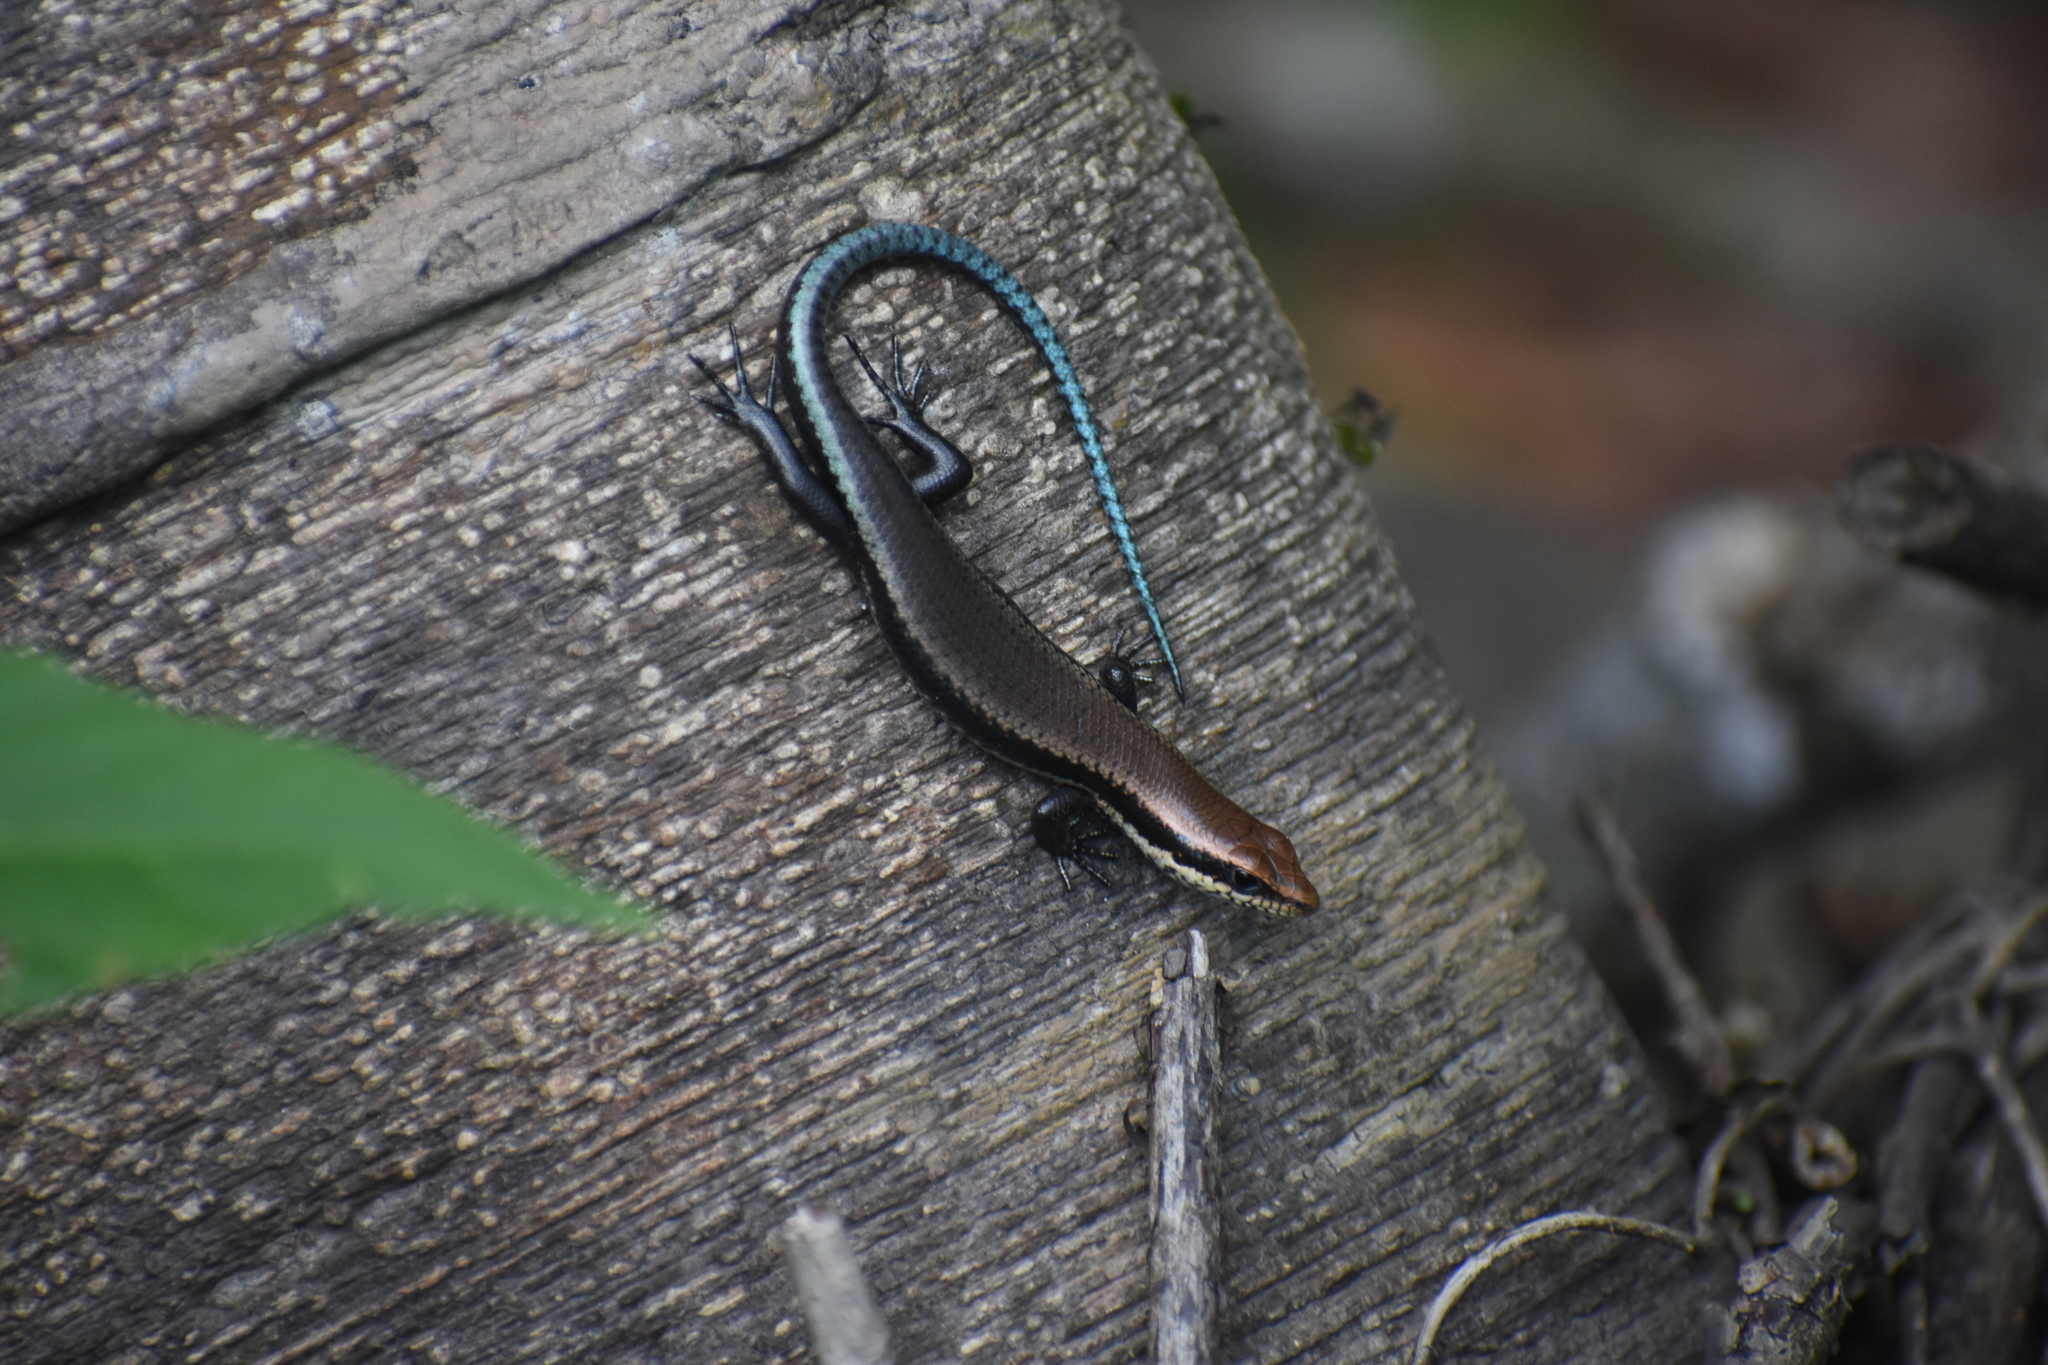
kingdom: Animalia
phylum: Chordata
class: Squamata
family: Scincidae
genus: Copeoglossum
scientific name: Copeoglossum nigropunctatum
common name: Black-spotted skink
